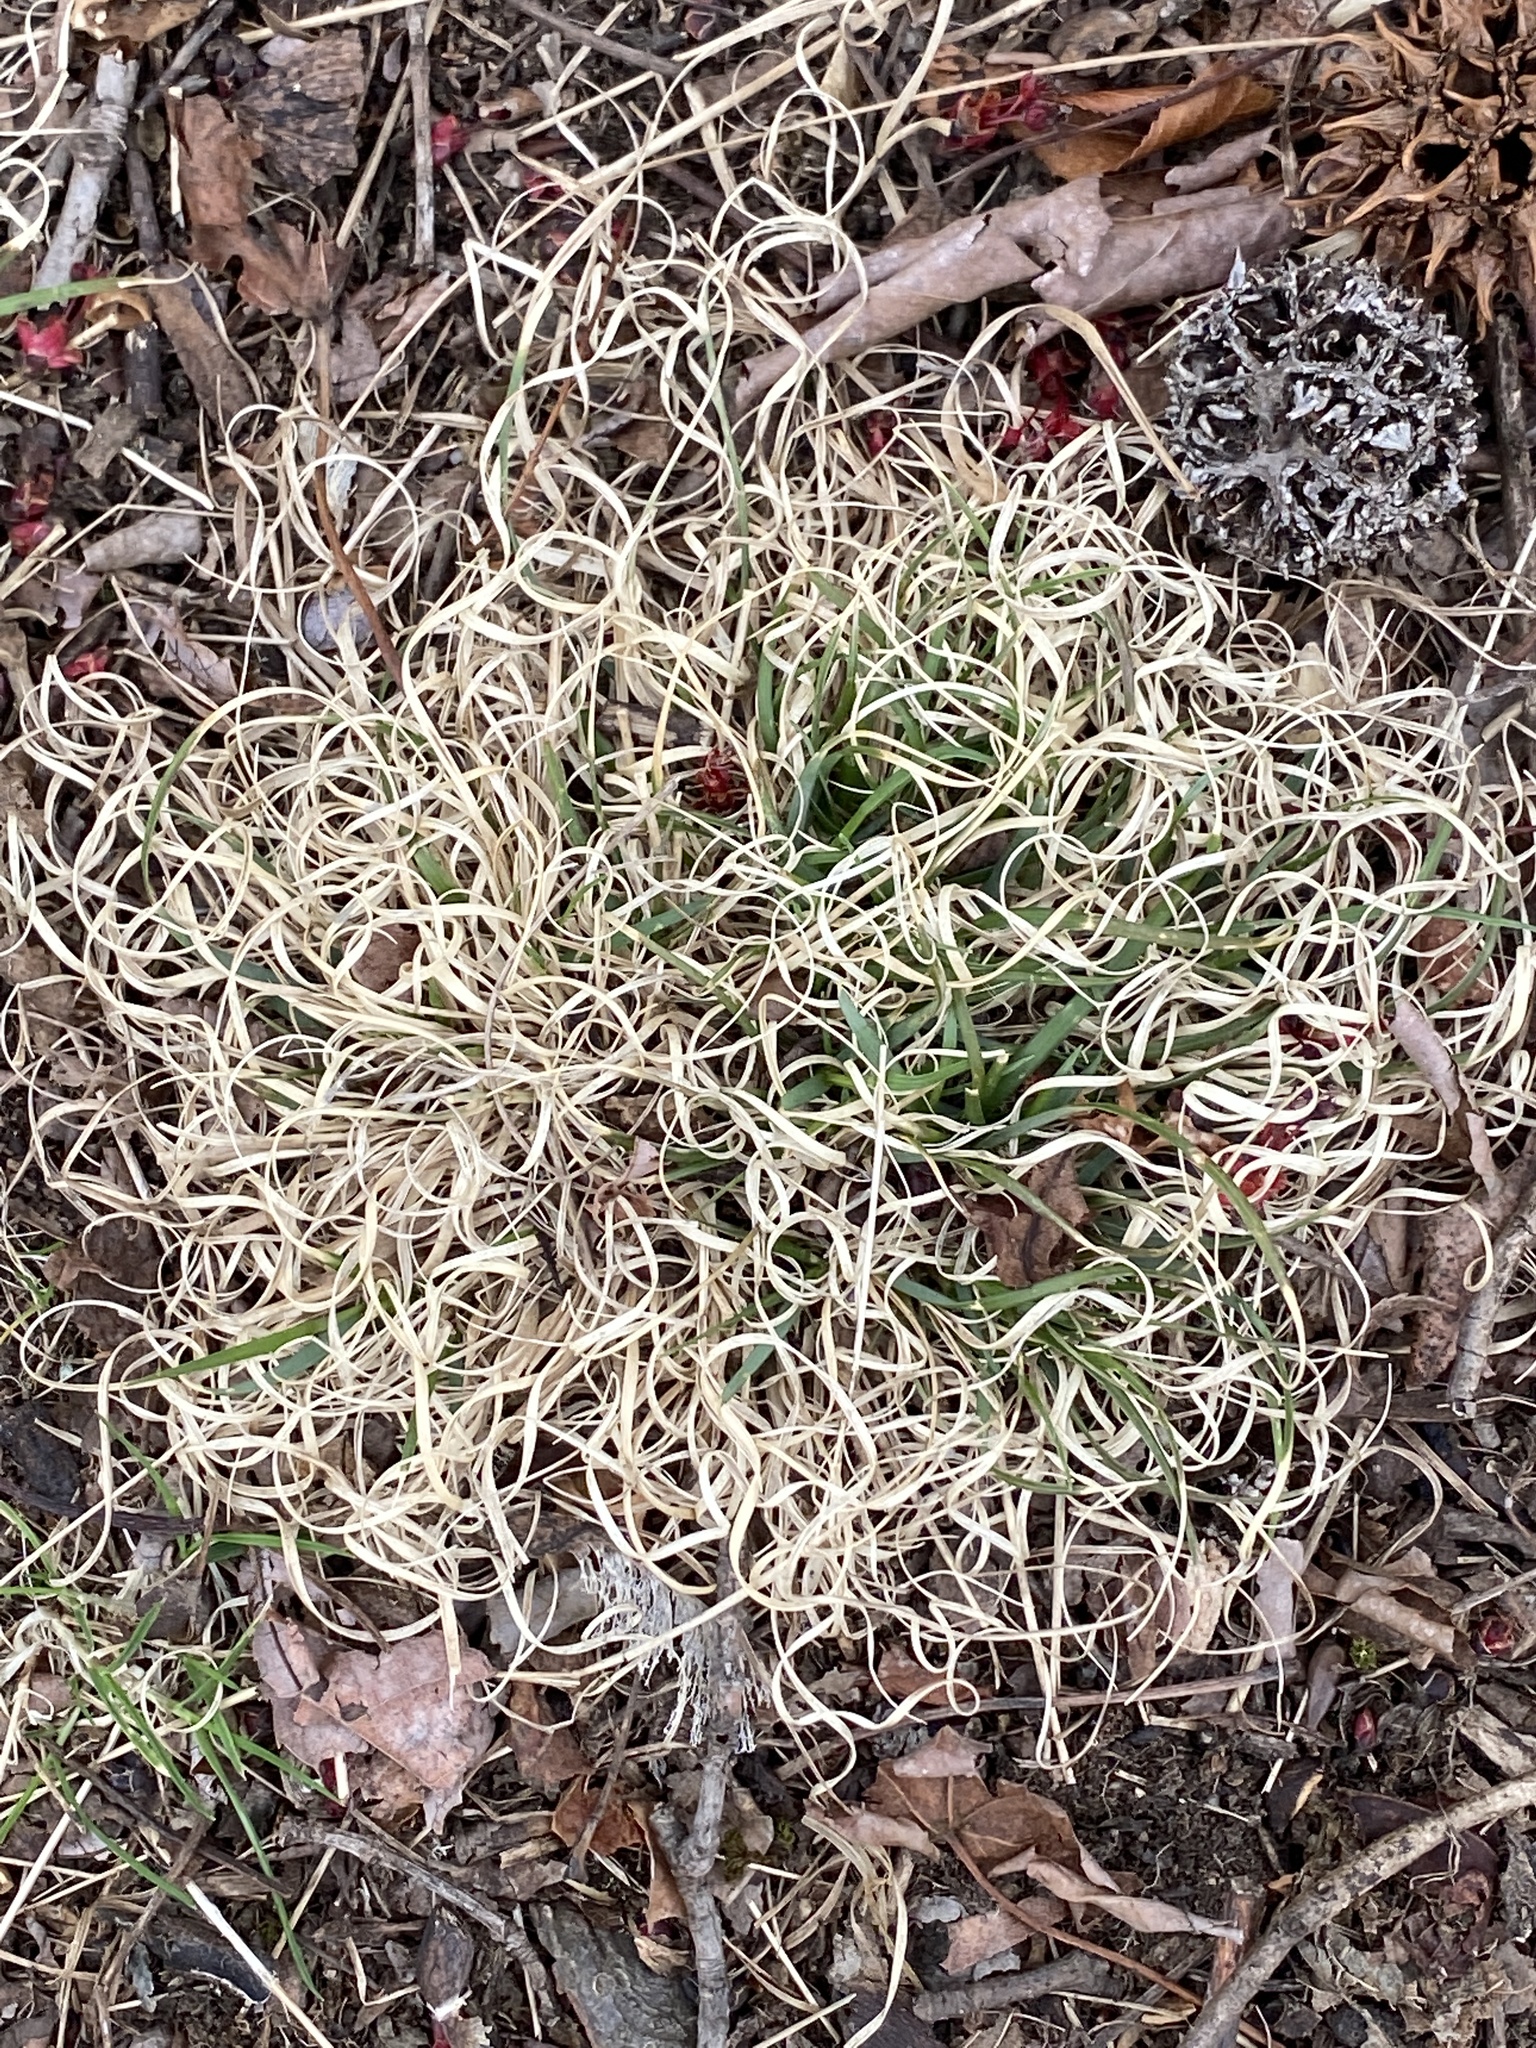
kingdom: Plantae
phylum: Tracheophyta
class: Liliopsida
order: Poales
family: Poaceae
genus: Danthonia
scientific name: Danthonia spicata
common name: Common wild oatgrass
